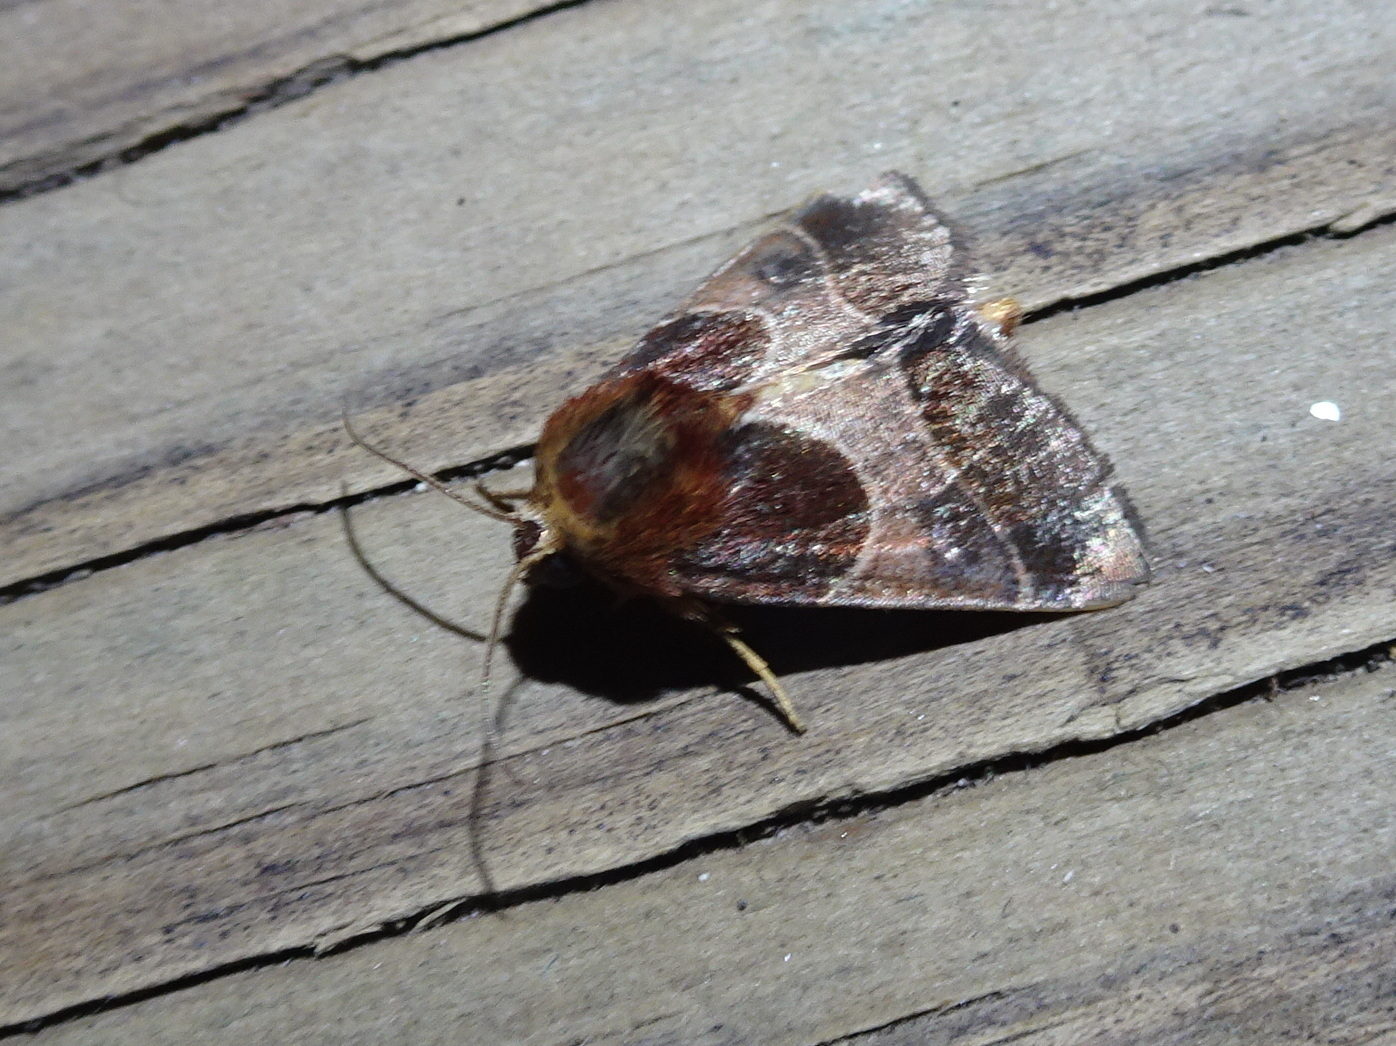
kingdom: Animalia
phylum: Arthropoda
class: Insecta
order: Lepidoptera
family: Noctuidae
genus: Schinia
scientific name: Schinia arcigera
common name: Arcigera flower moth
